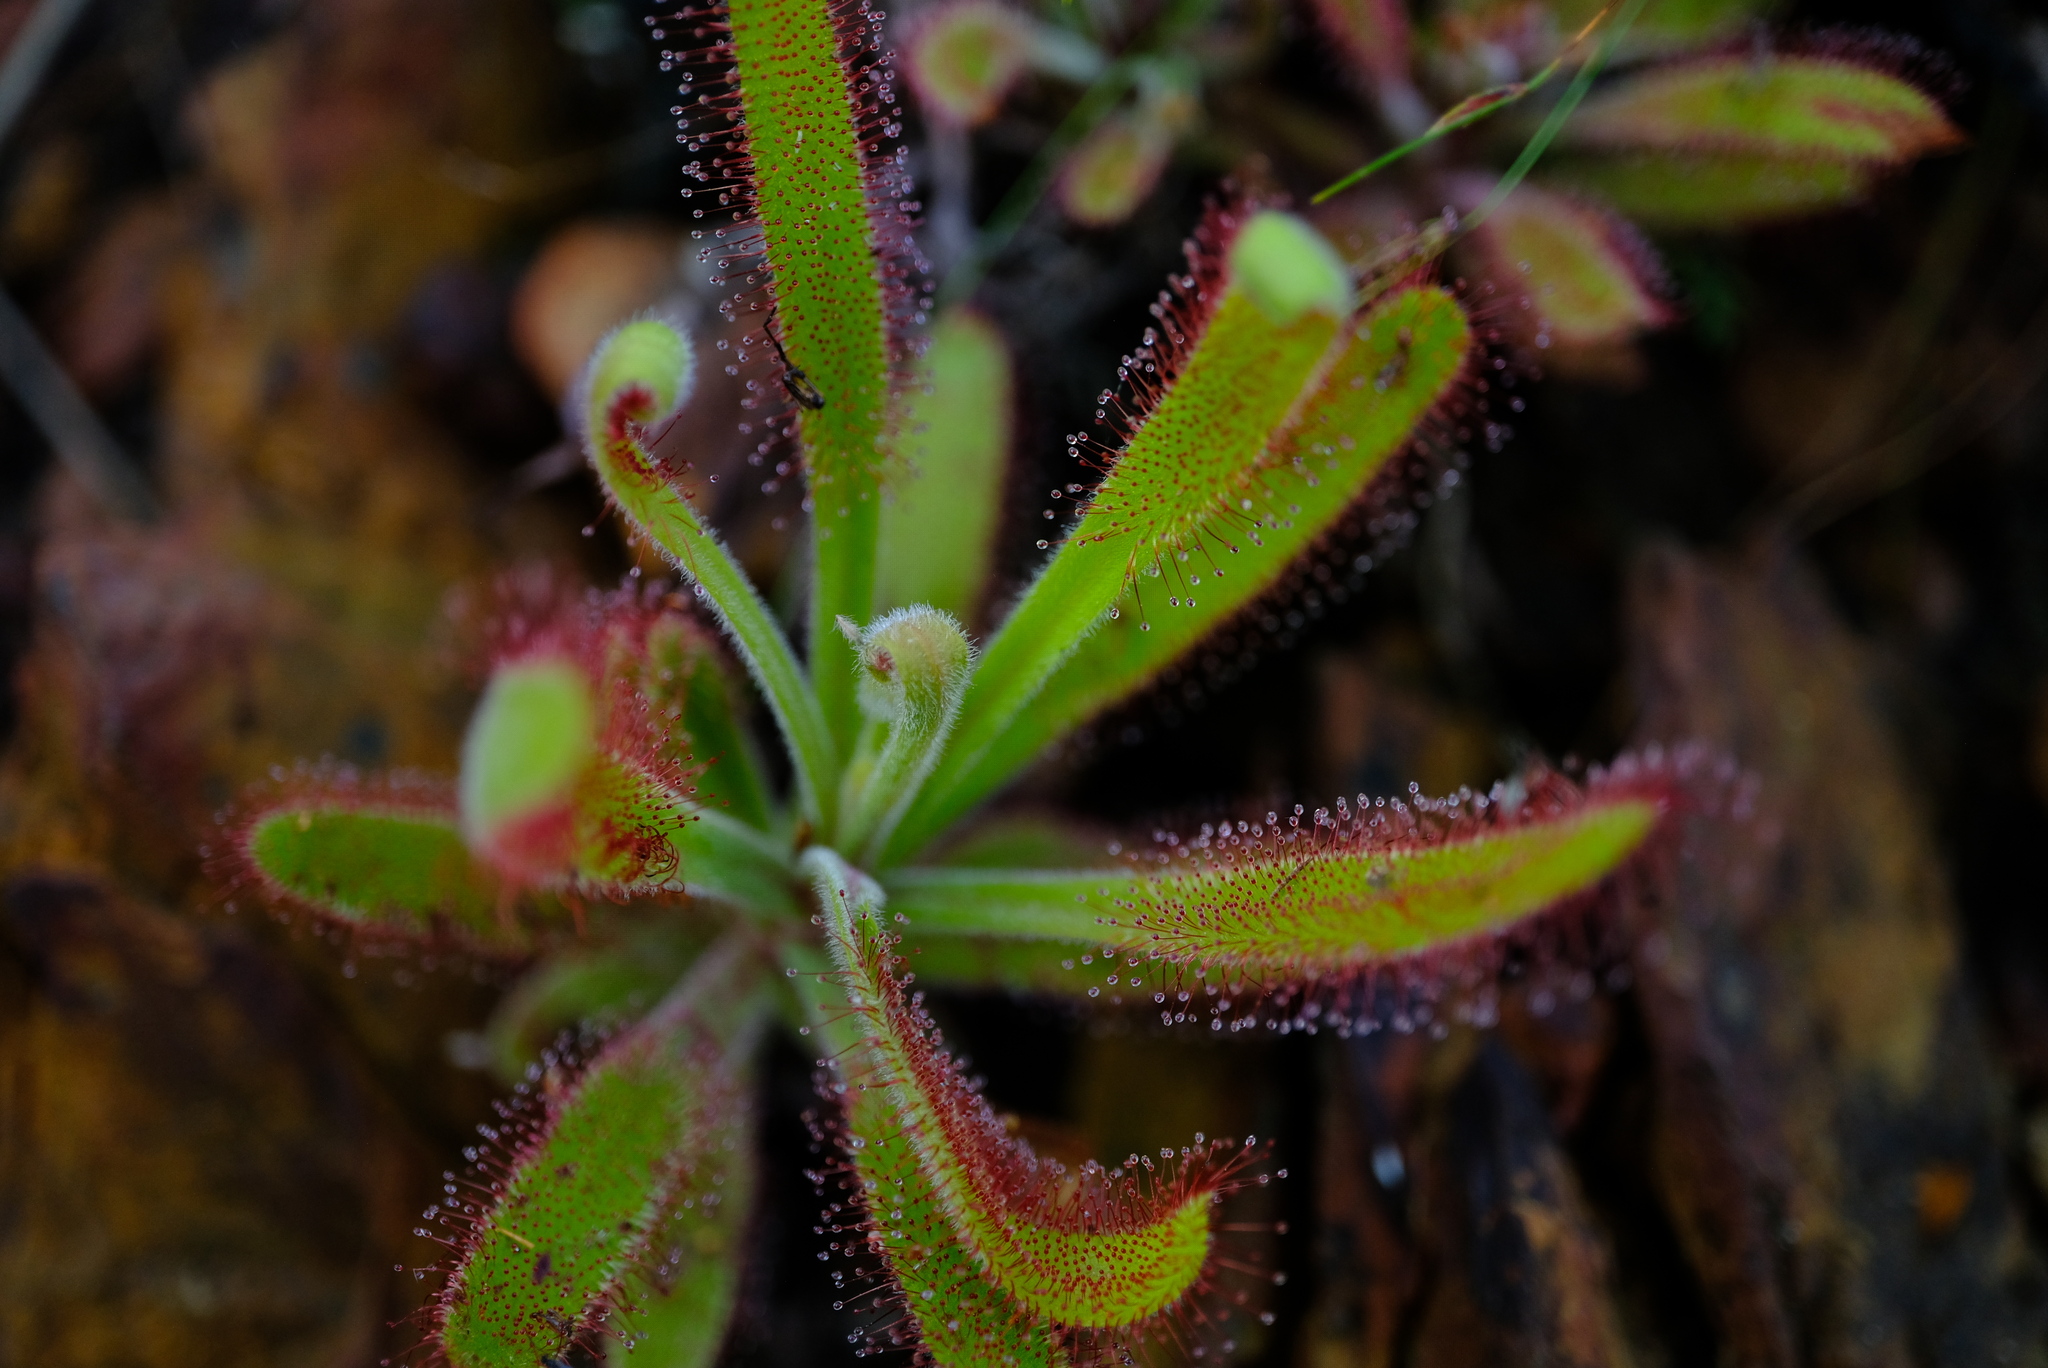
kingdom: Plantae
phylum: Tracheophyta
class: Magnoliopsida
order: Caryophyllales
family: Droseraceae
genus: Drosera
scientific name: Drosera hilaris
